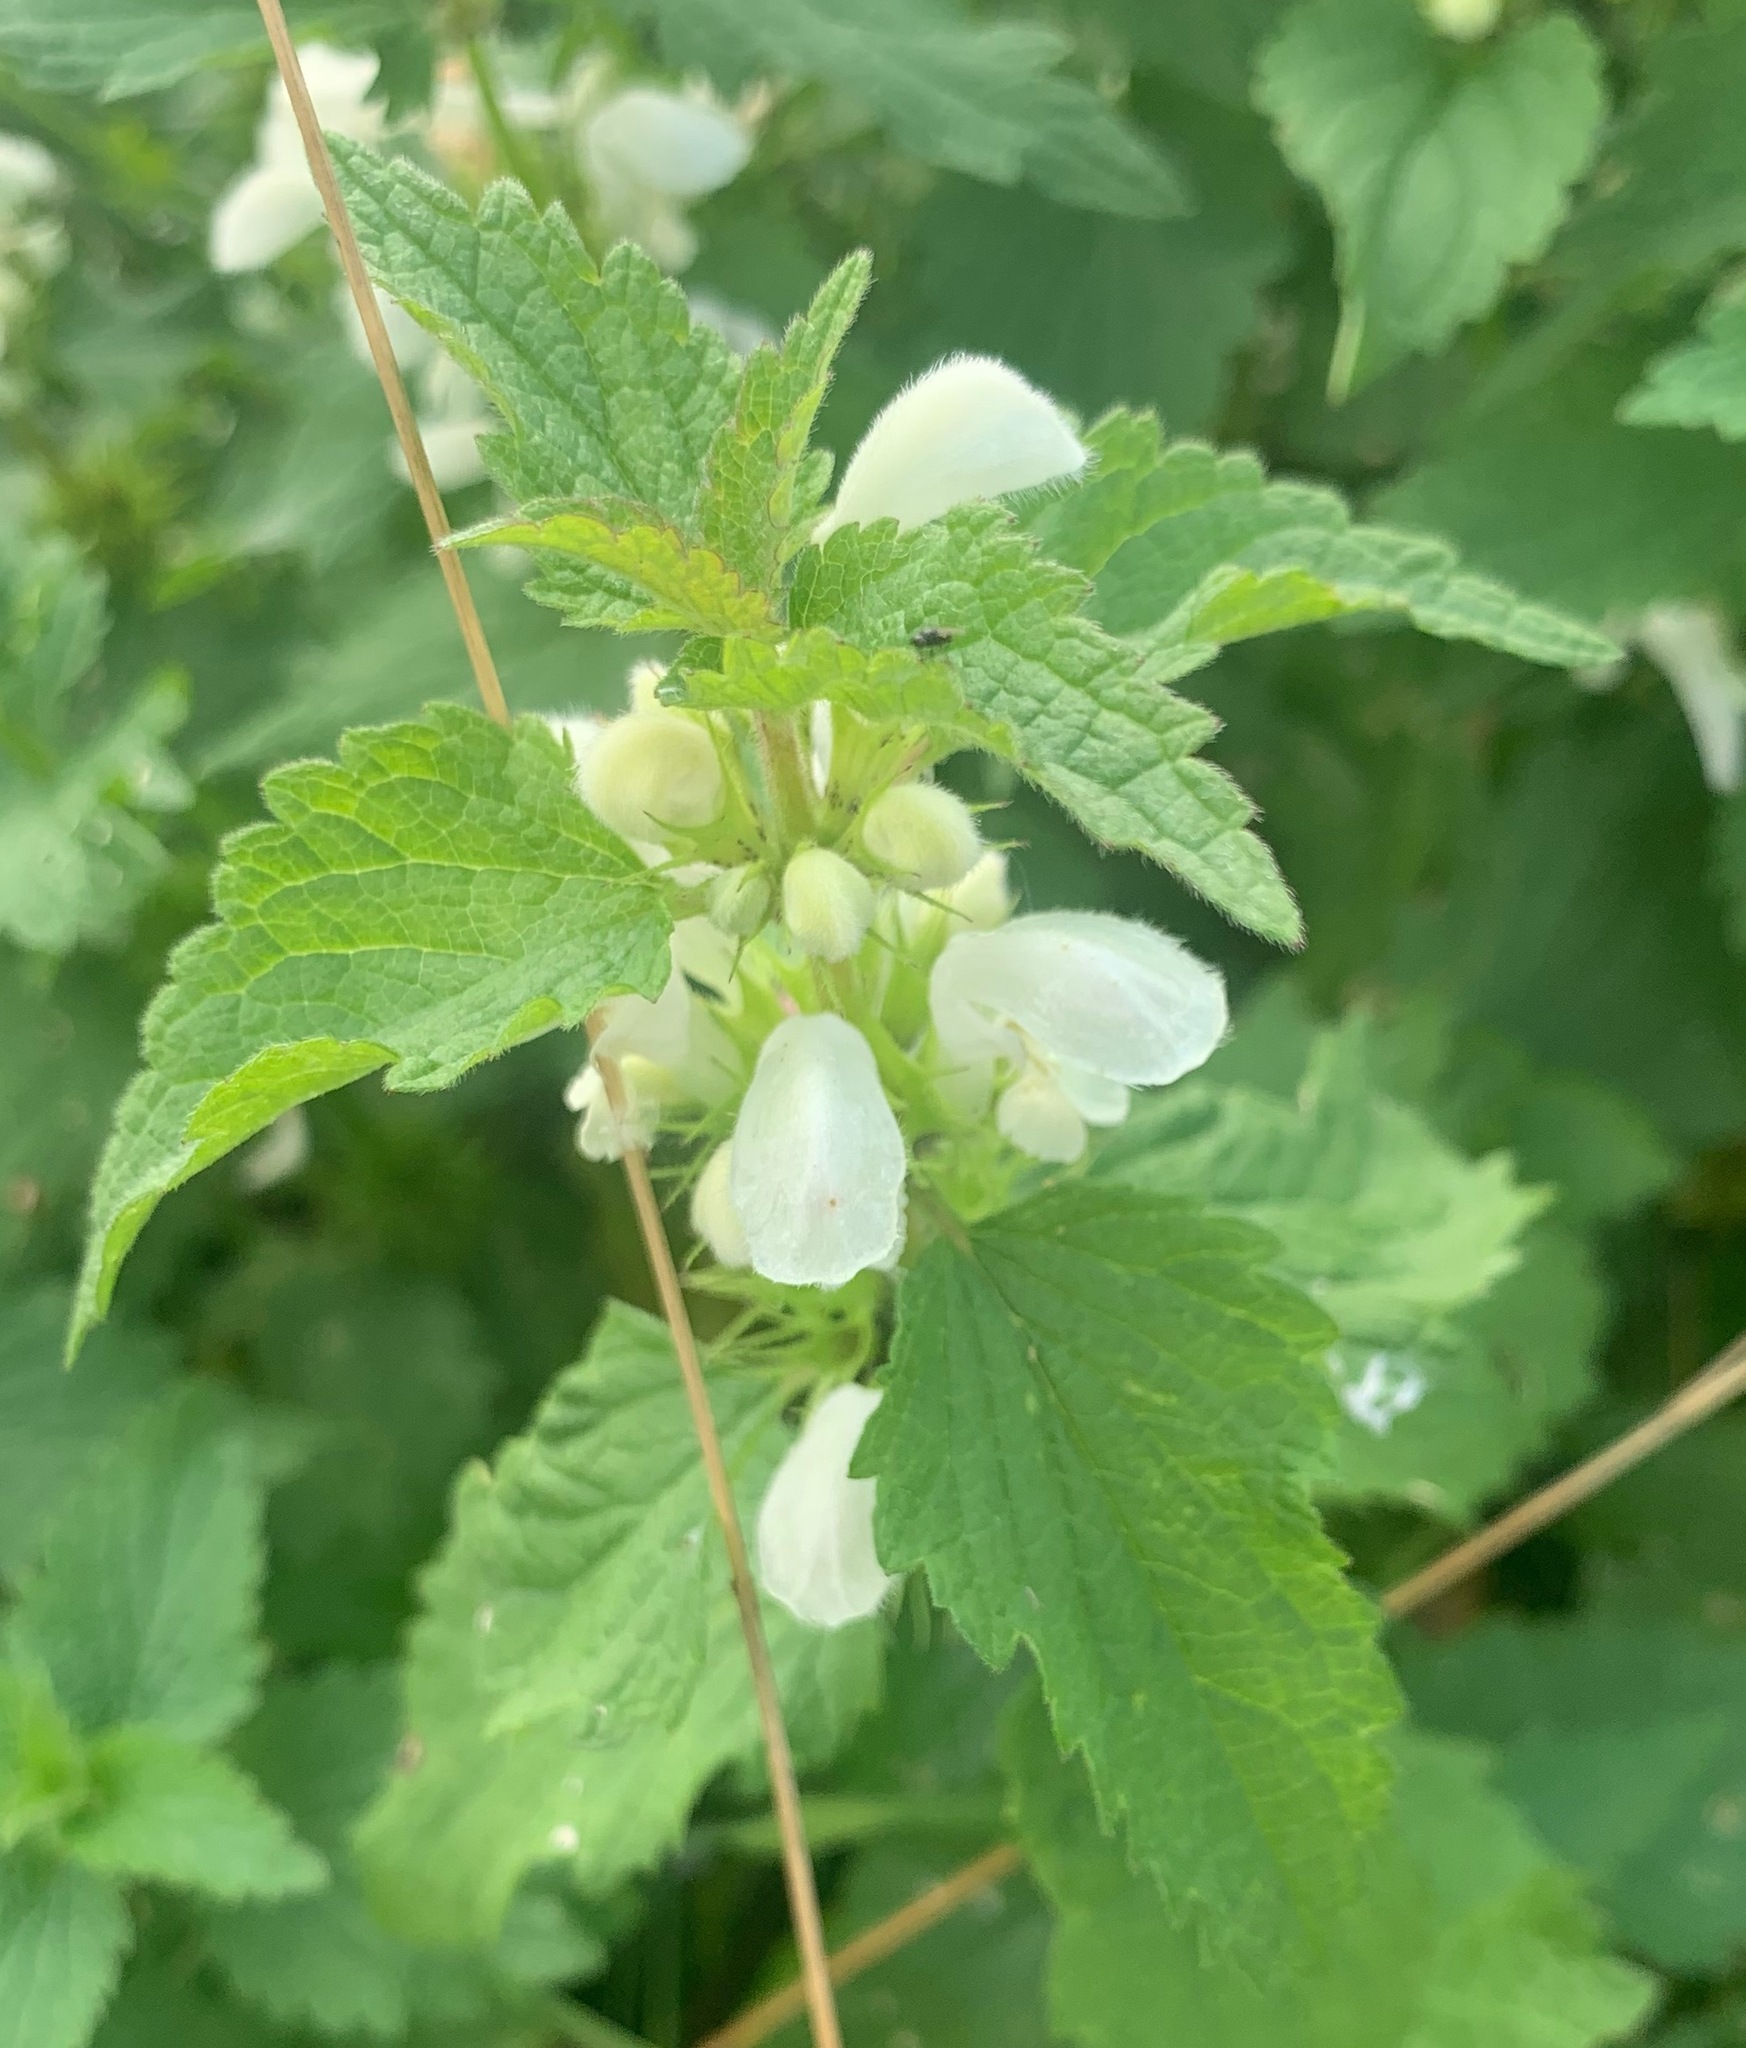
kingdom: Plantae
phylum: Tracheophyta
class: Magnoliopsida
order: Lamiales
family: Lamiaceae
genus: Lamium
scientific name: Lamium album
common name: White dead-nettle
